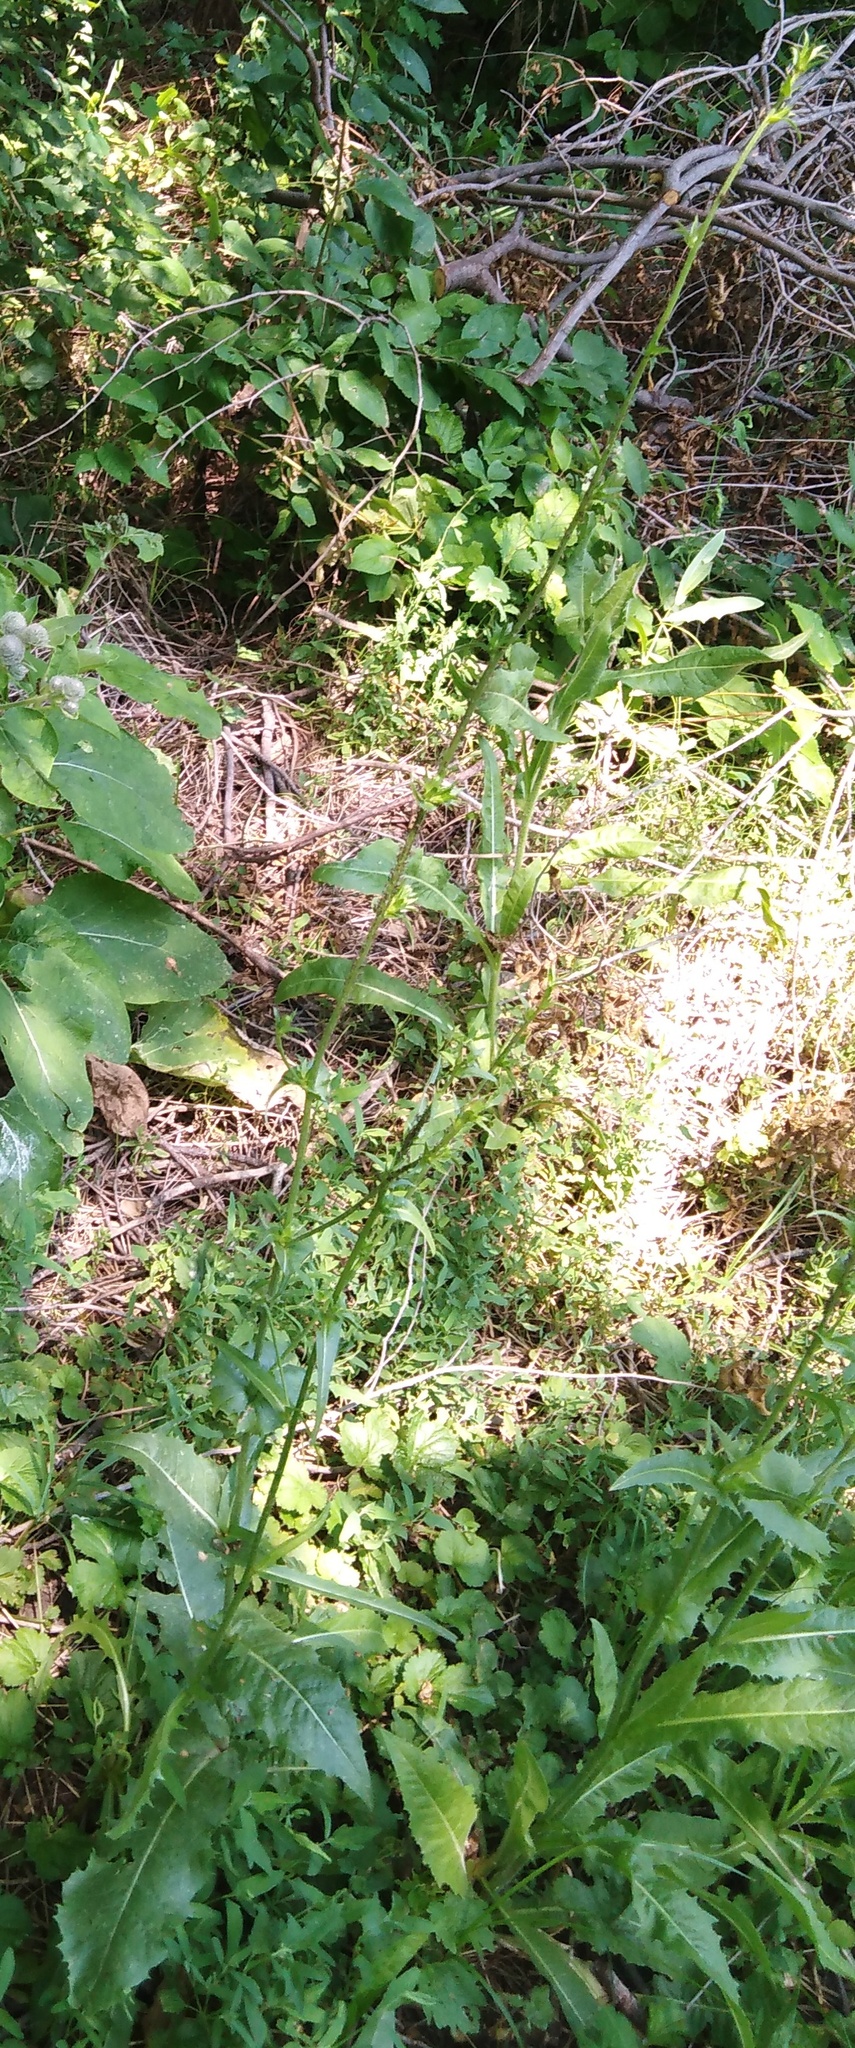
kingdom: Plantae
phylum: Tracheophyta
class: Magnoliopsida
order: Asterales
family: Asteraceae
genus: Cichorium
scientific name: Cichorium intybus
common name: Chicory
